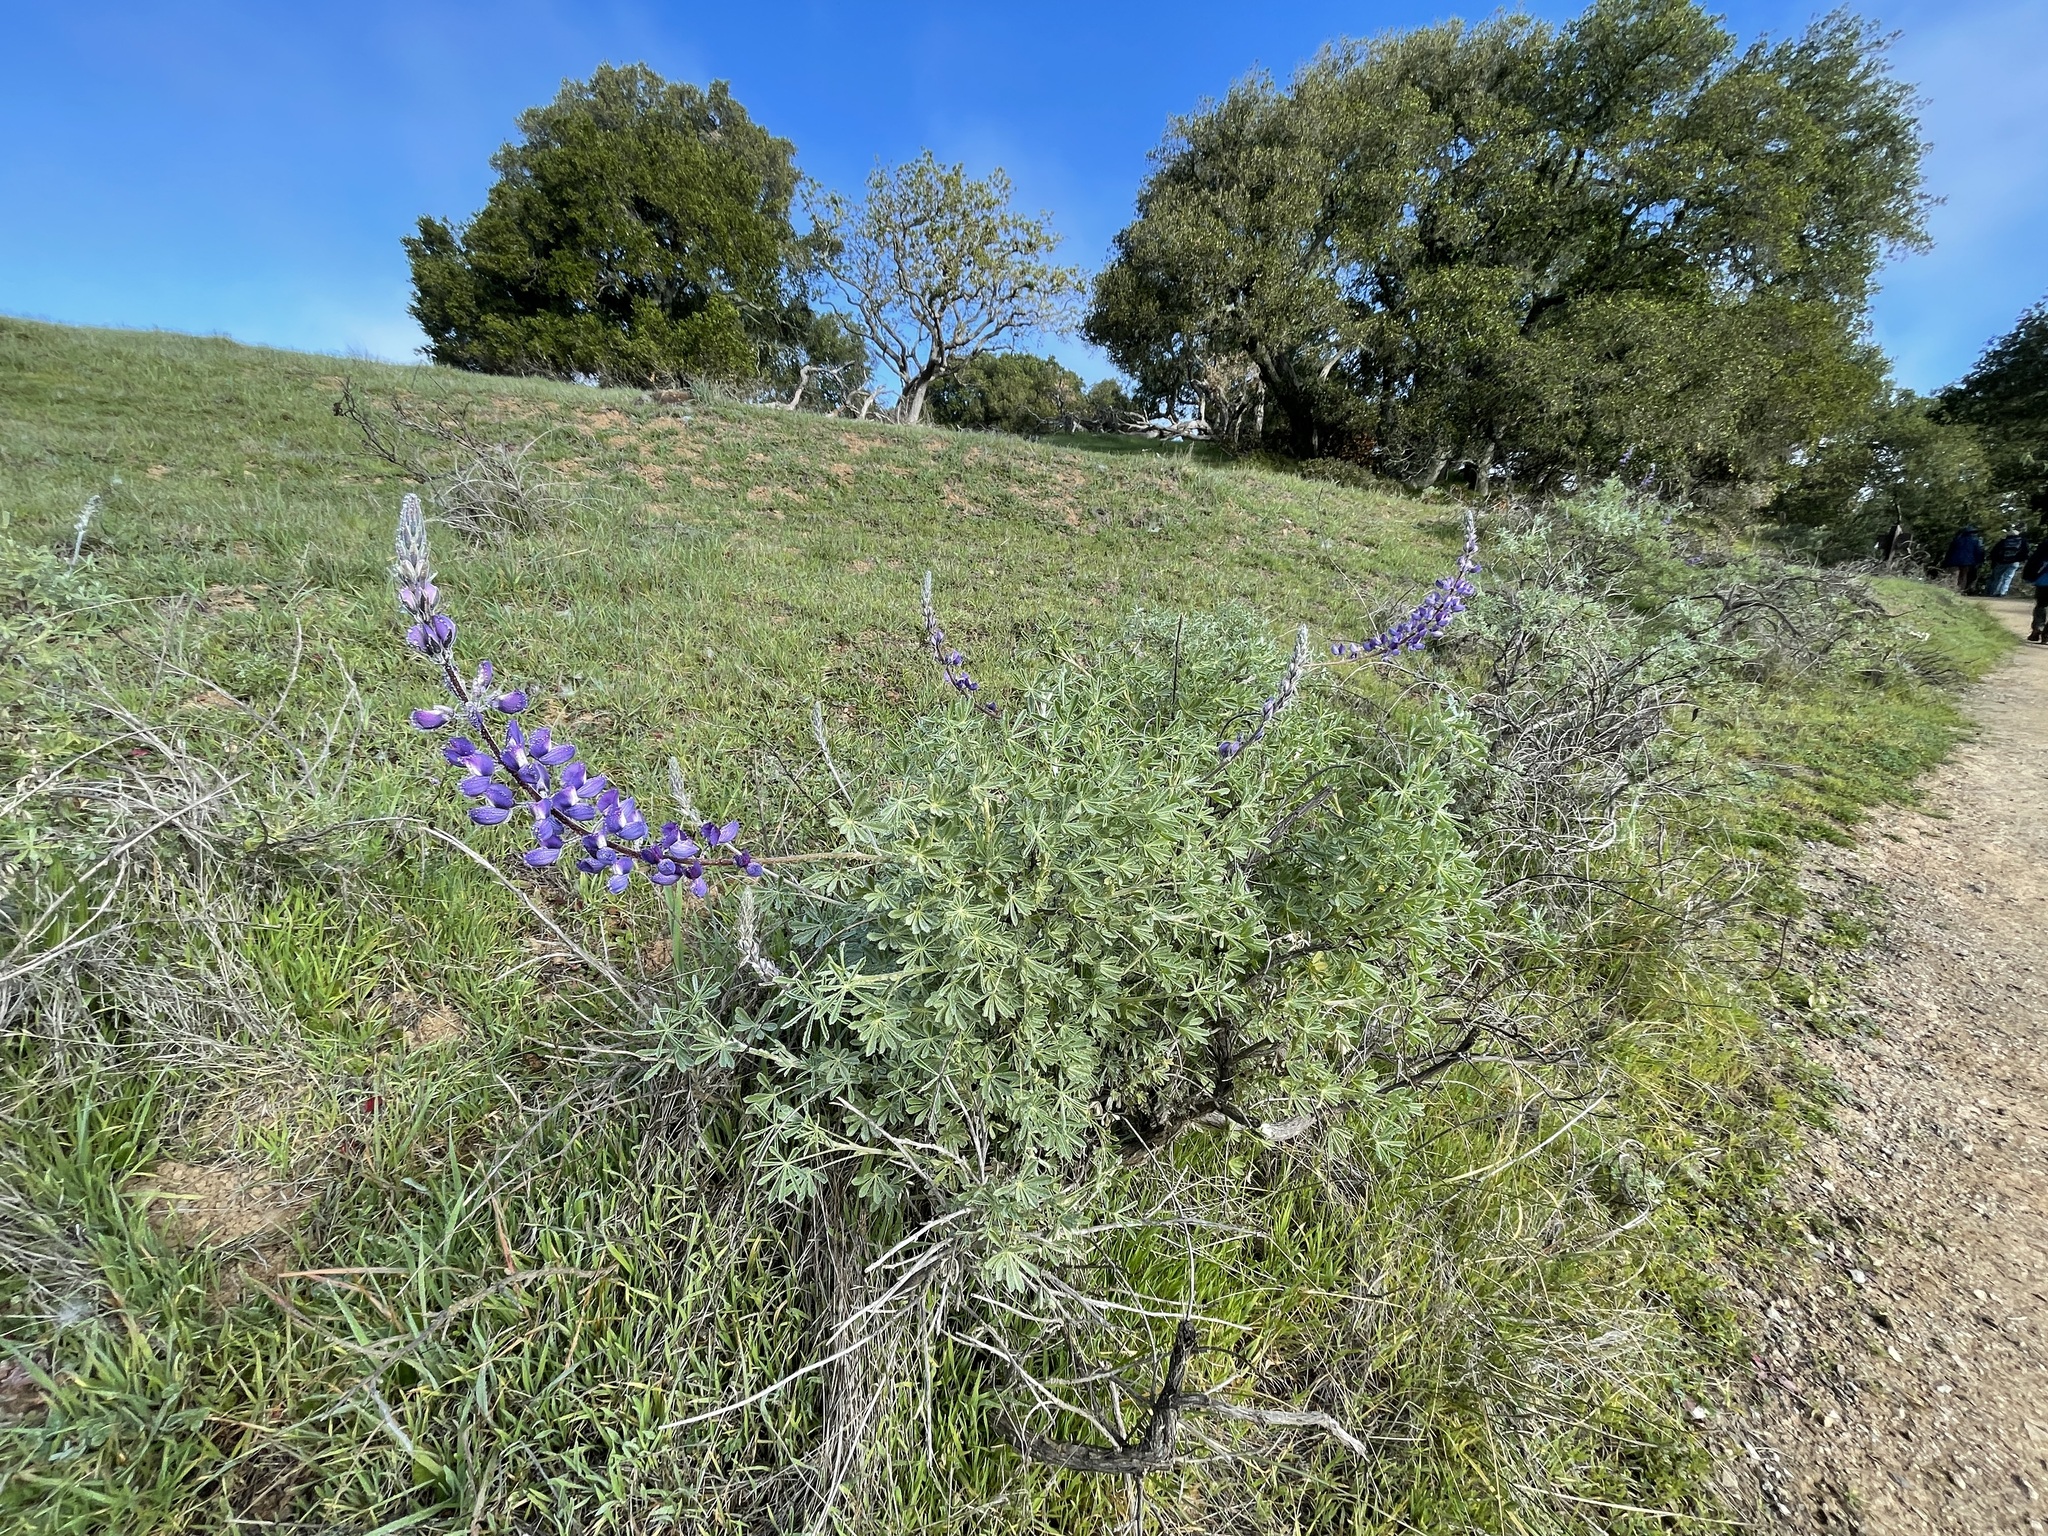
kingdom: Plantae
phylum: Tracheophyta
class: Magnoliopsida
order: Fabales
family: Fabaceae
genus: Lupinus
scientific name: Lupinus albifrons
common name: Foothill lupine
